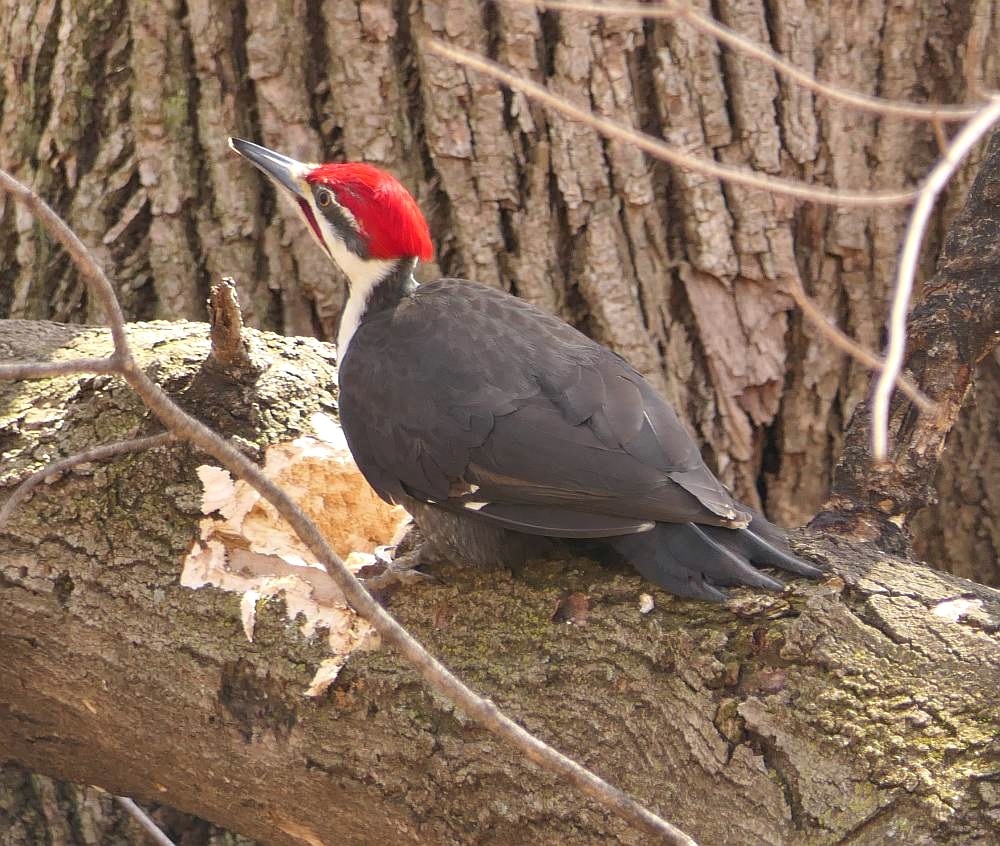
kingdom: Animalia
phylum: Chordata
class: Aves
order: Piciformes
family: Picidae
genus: Dryocopus
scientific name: Dryocopus pileatus
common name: Pileated woodpecker
